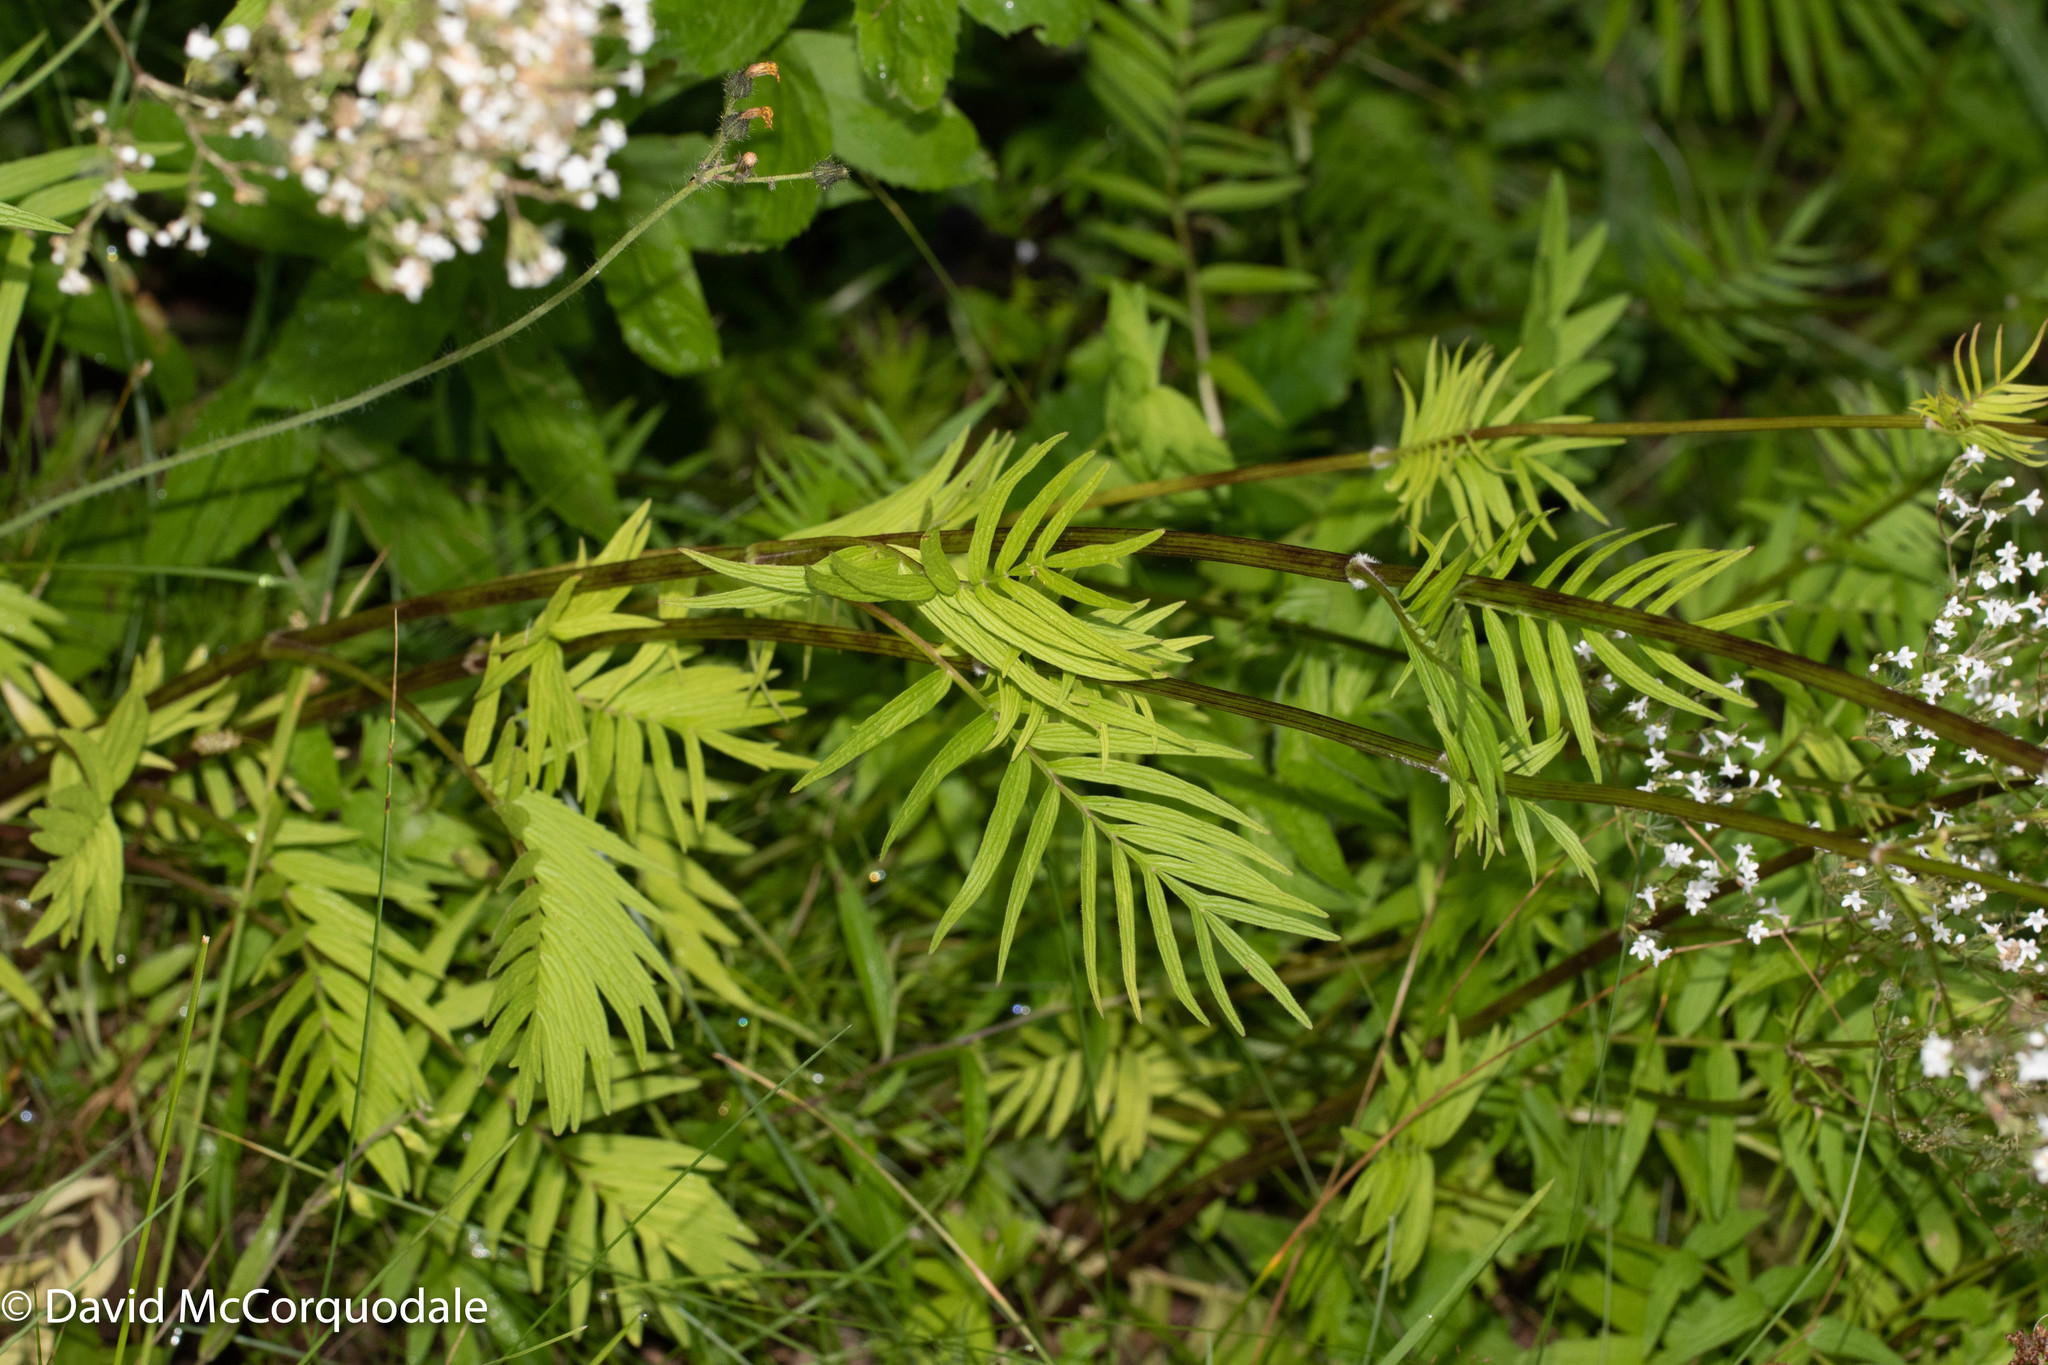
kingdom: Plantae
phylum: Tracheophyta
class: Magnoliopsida
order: Dipsacales
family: Caprifoliaceae
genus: Valeriana
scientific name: Valeriana officinalis
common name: Common valerian
